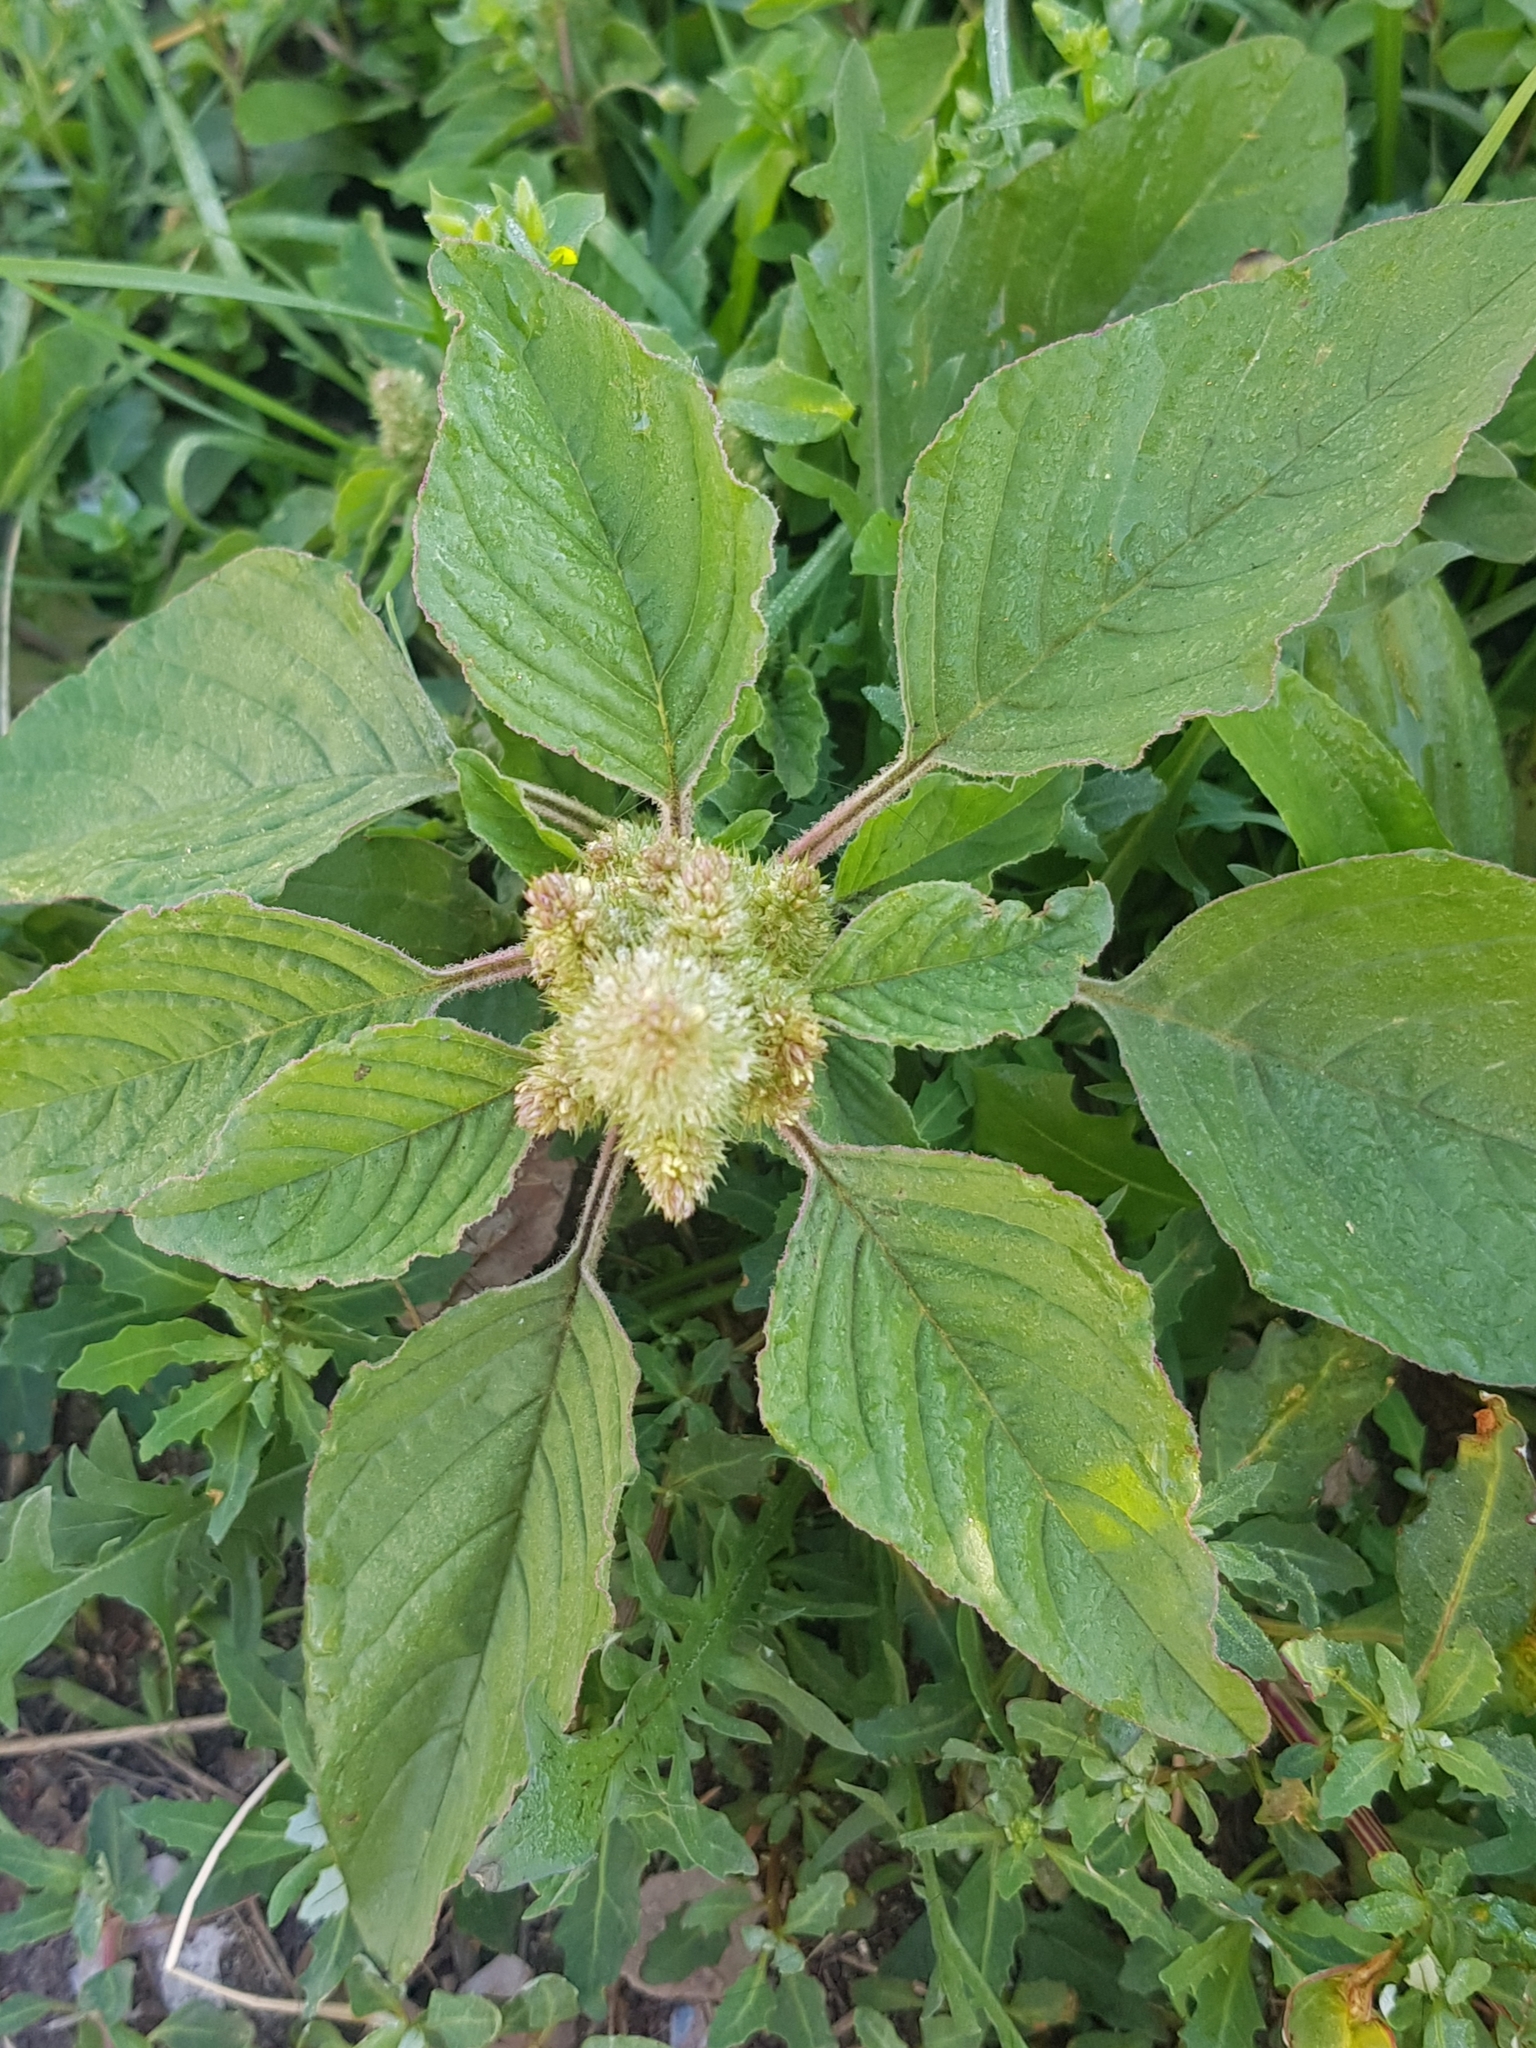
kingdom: Plantae
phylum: Tracheophyta
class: Magnoliopsida
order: Caryophyllales
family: Amaranthaceae
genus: Amaranthus
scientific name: Amaranthus retroflexus
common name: Redroot amaranth
